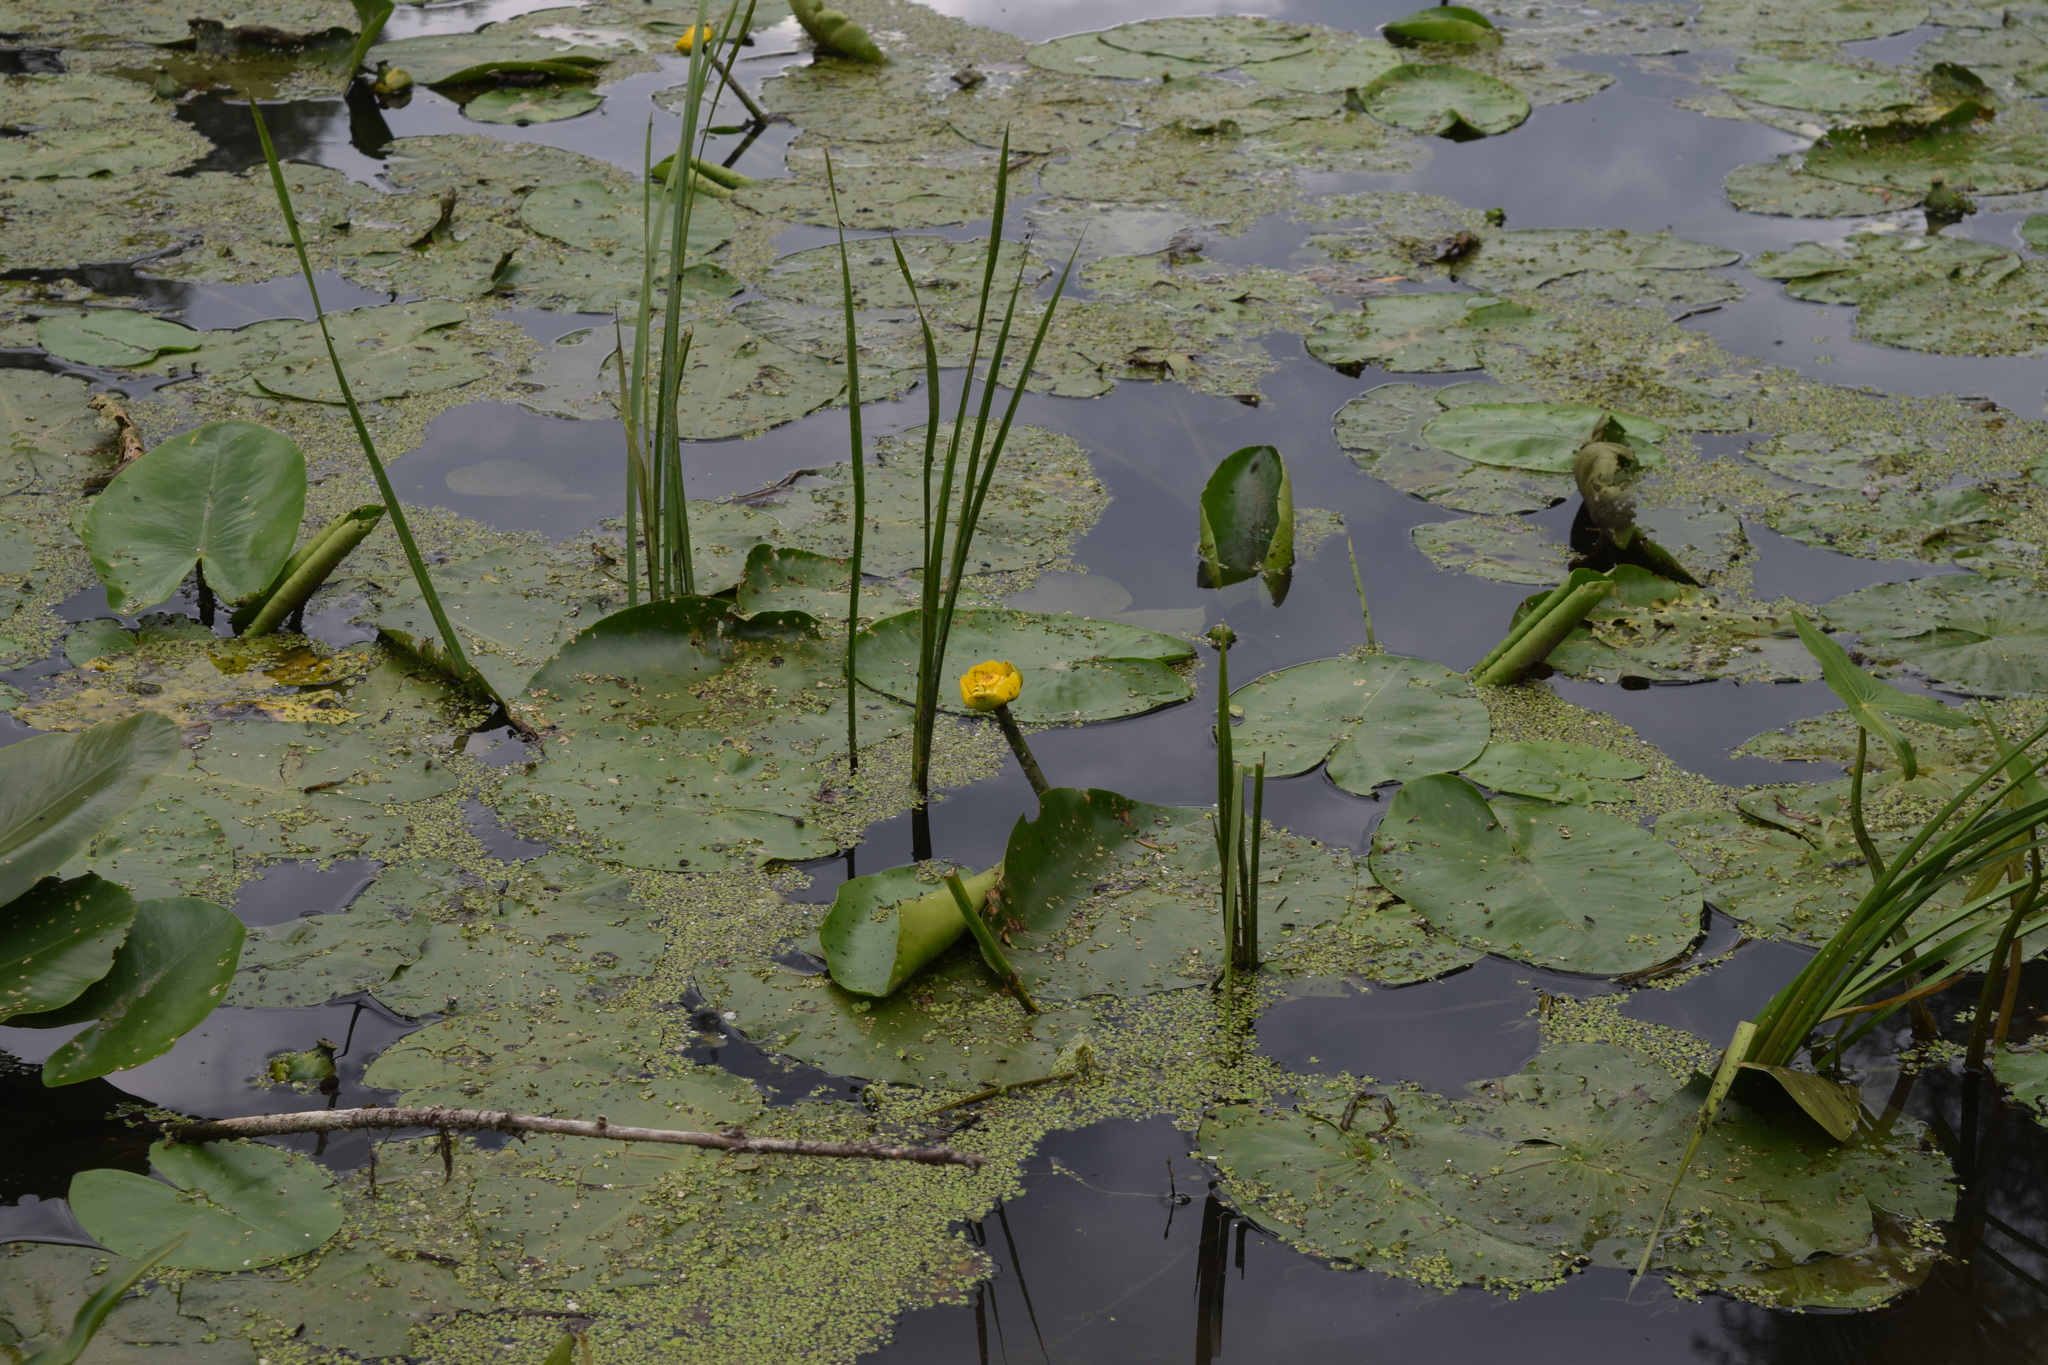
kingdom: Plantae
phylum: Tracheophyta
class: Magnoliopsida
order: Nymphaeales
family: Nymphaeaceae
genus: Nuphar
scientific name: Nuphar lutea
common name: Yellow water-lily
